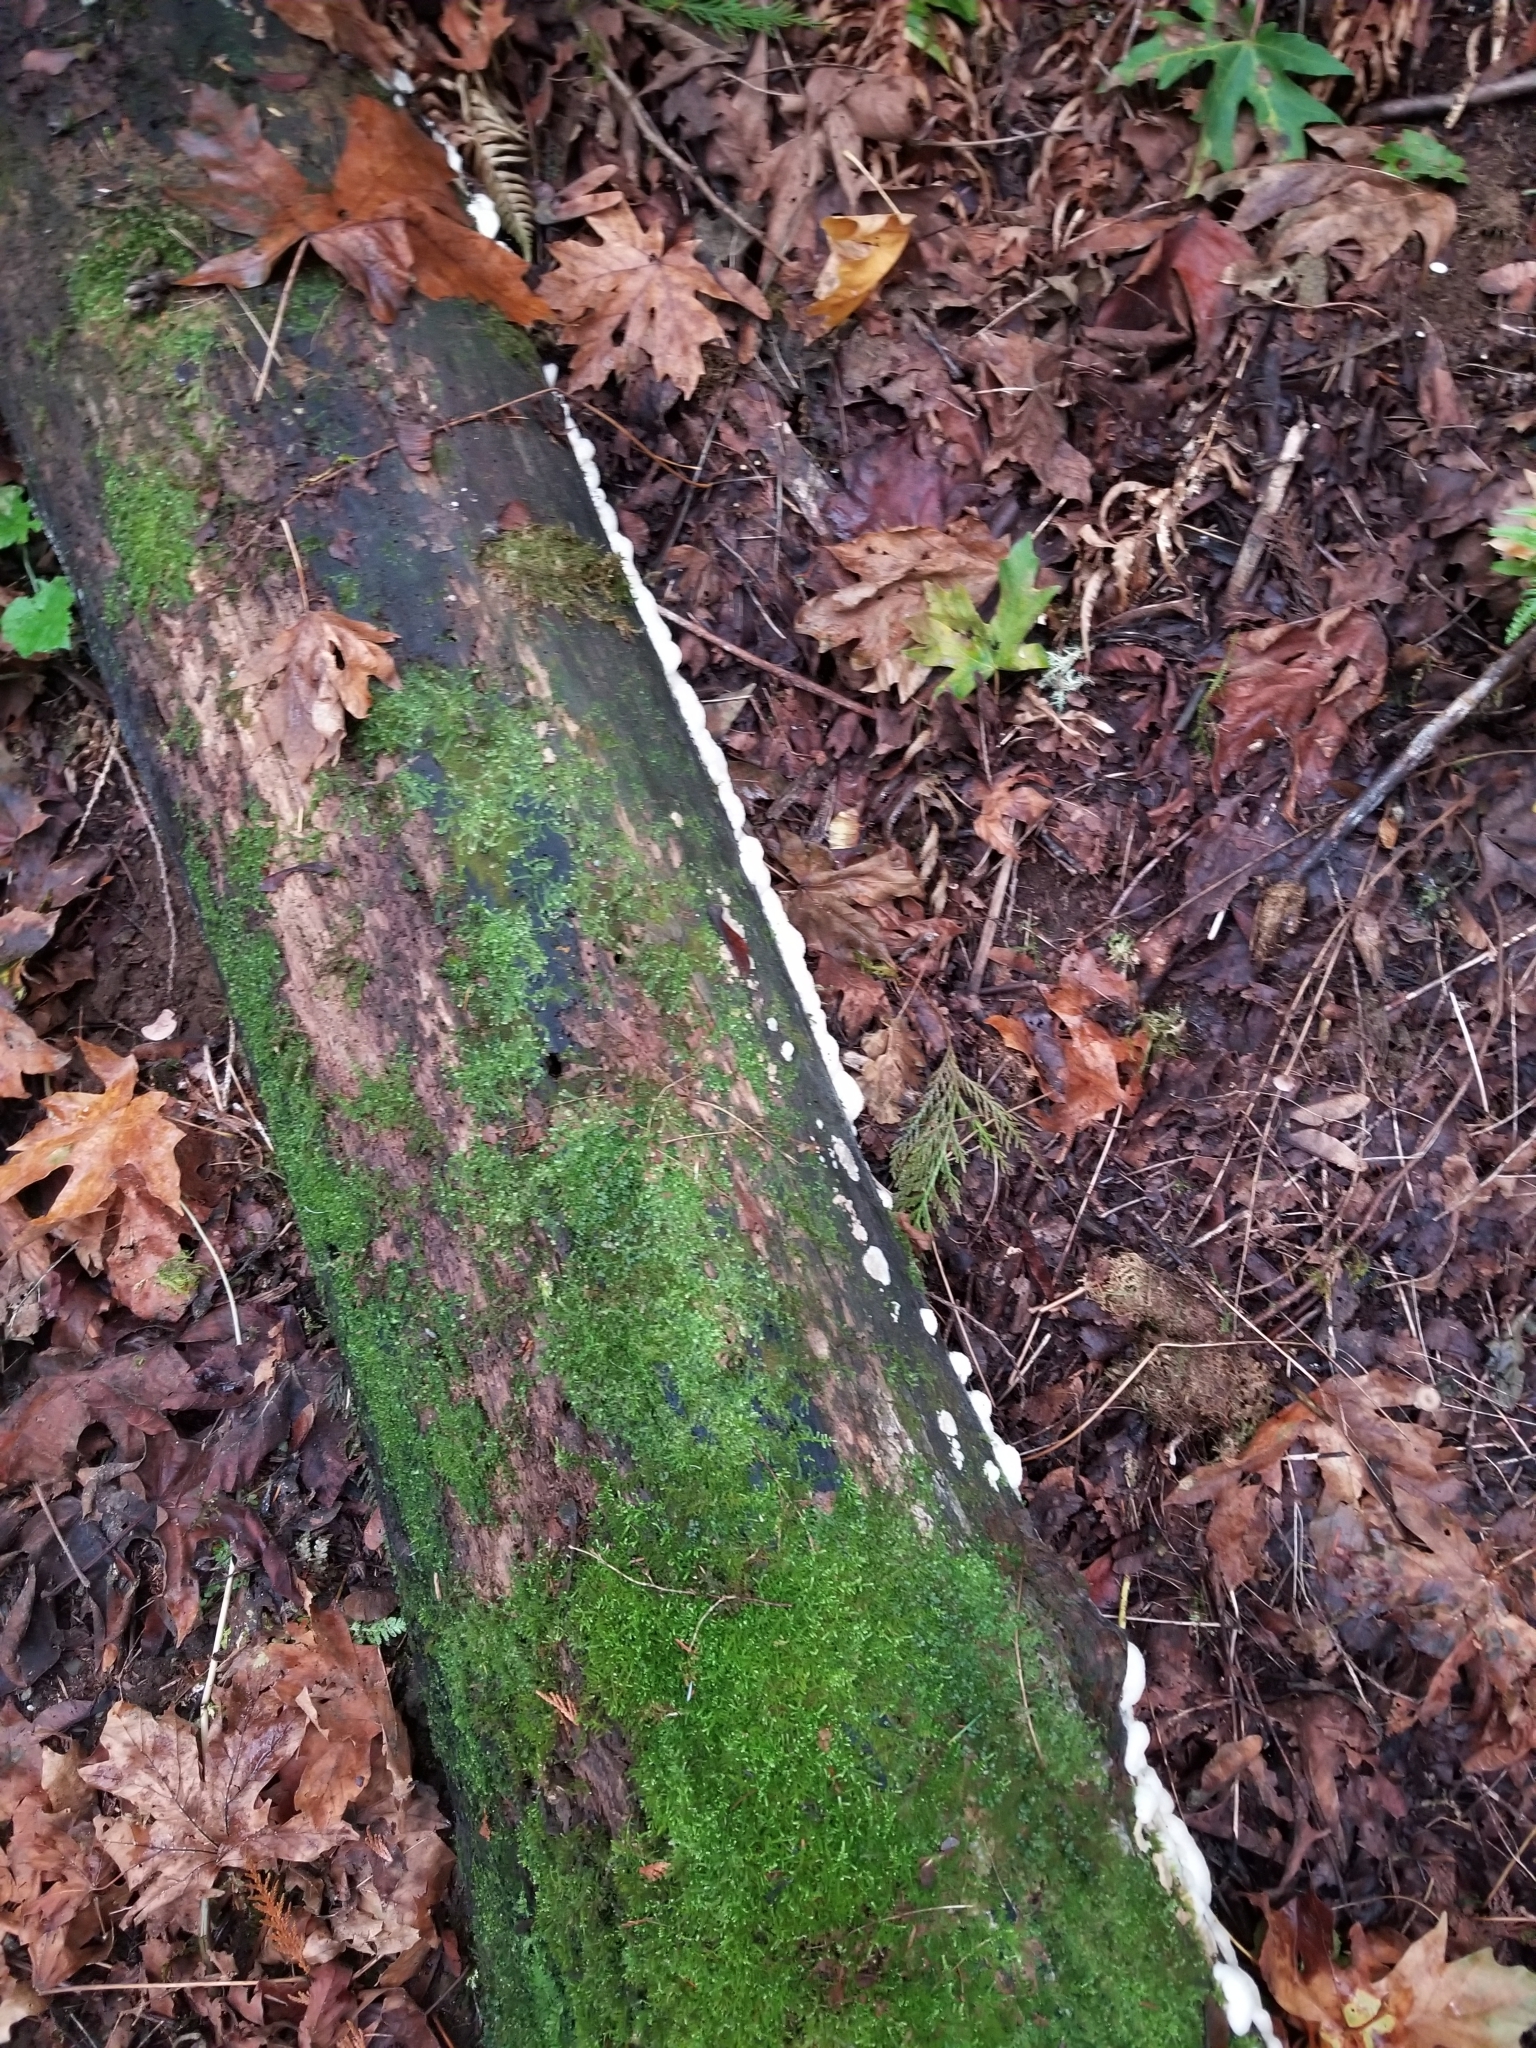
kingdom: Fungi
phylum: Basidiomycota
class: Agaricomycetes
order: Polyporales
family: Meruliaceae
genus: Phlebia
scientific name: Phlebia tremellosa
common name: Jelly rot
